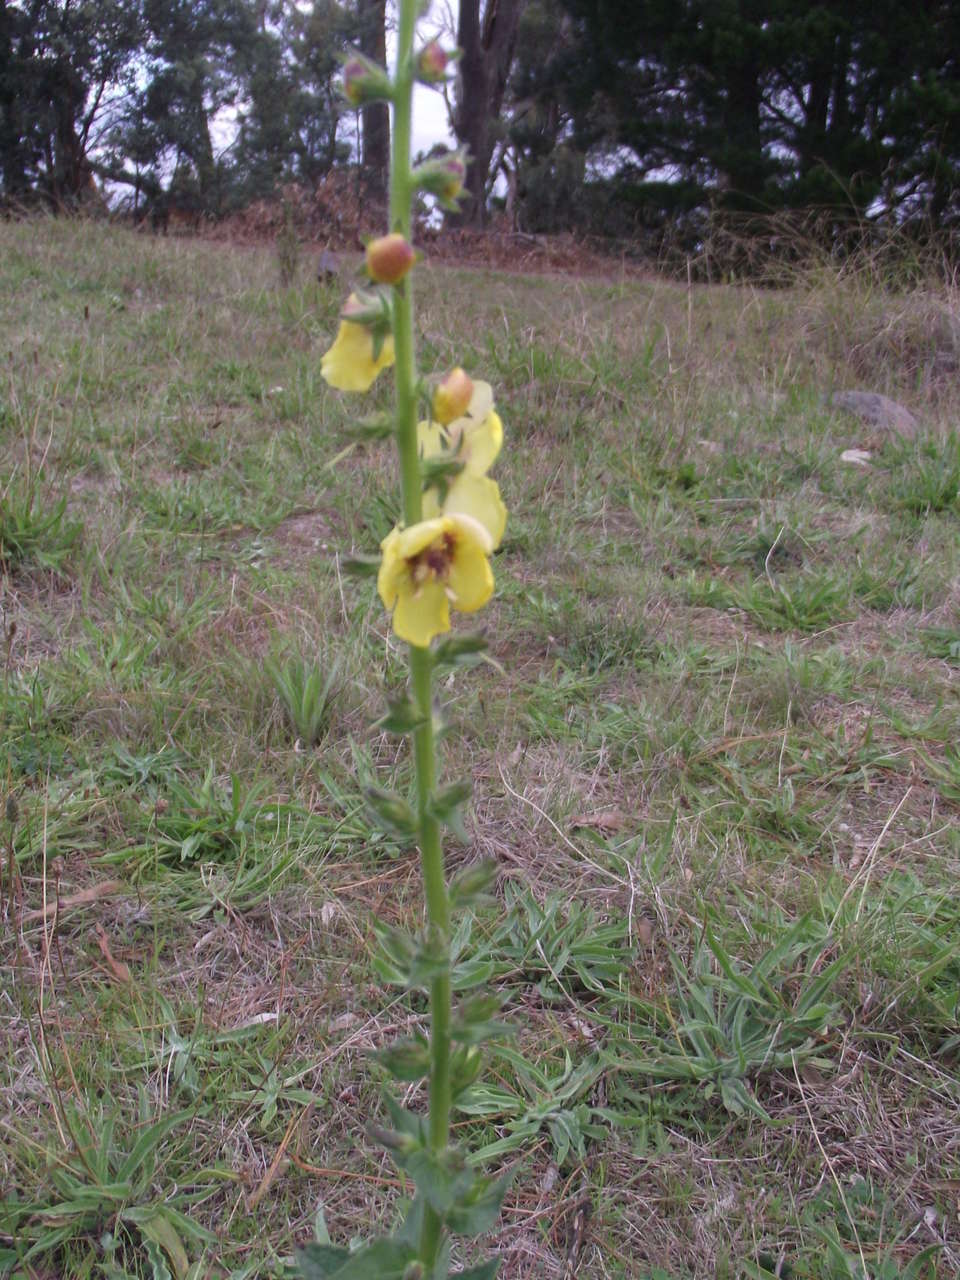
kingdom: Plantae
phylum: Tracheophyta
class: Magnoliopsida
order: Lamiales
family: Scrophulariaceae
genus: Verbascum
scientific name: Verbascum virgatum
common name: Twiggy mullein
